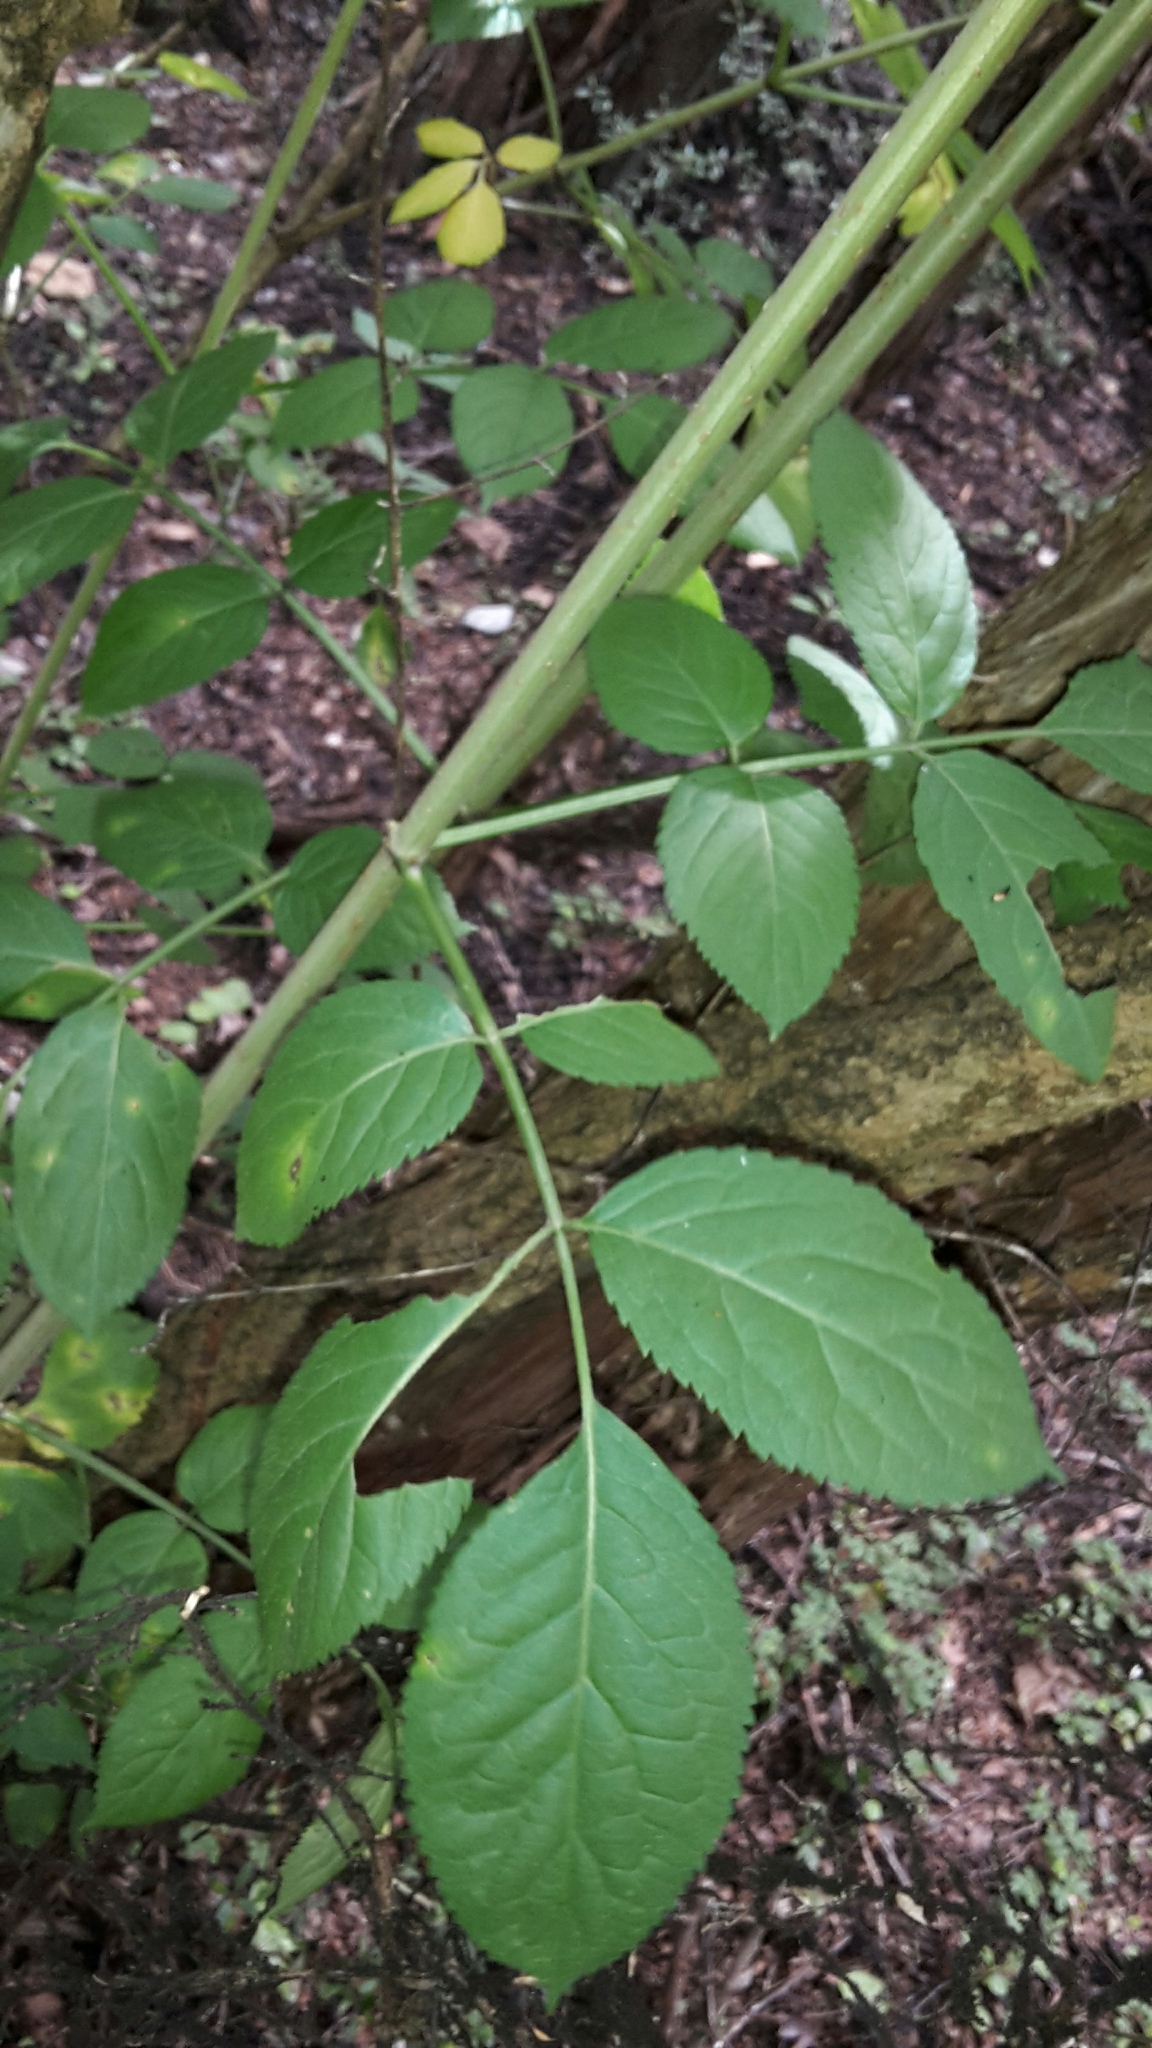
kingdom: Plantae
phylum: Tracheophyta
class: Magnoliopsida
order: Dipsacales
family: Viburnaceae
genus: Sambucus
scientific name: Sambucus nigra
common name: Elder
